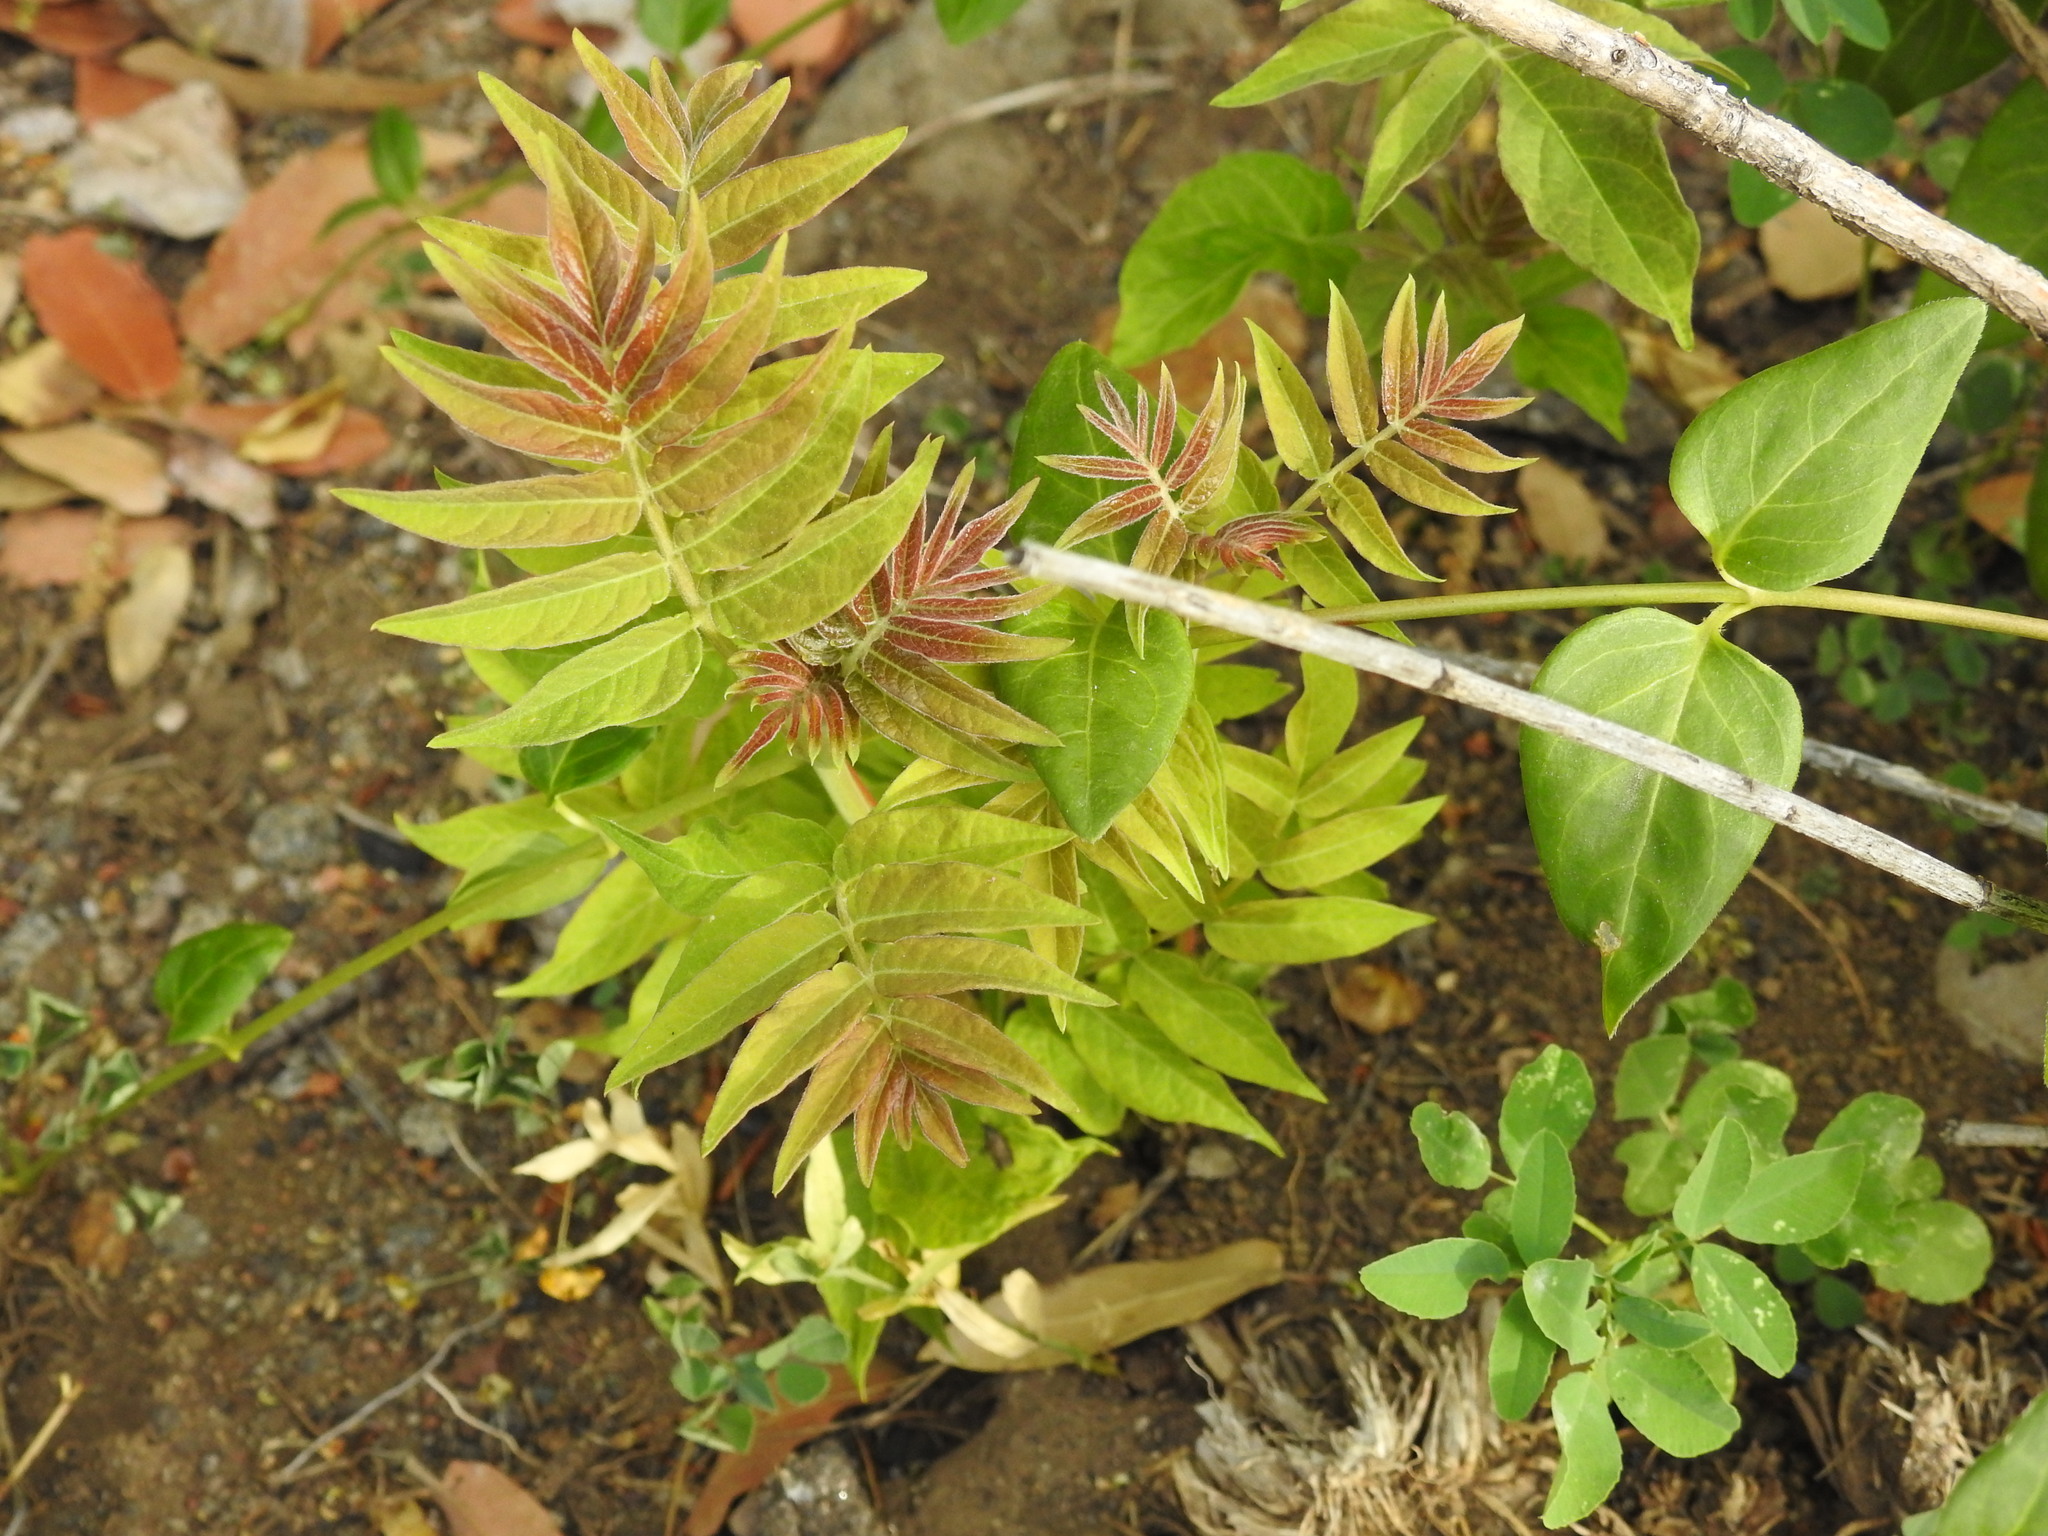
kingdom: Plantae
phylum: Tracheophyta
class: Magnoliopsida
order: Sapindales
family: Simaroubaceae
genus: Ailanthus
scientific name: Ailanthus altissima
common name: Tree-of-heaven
